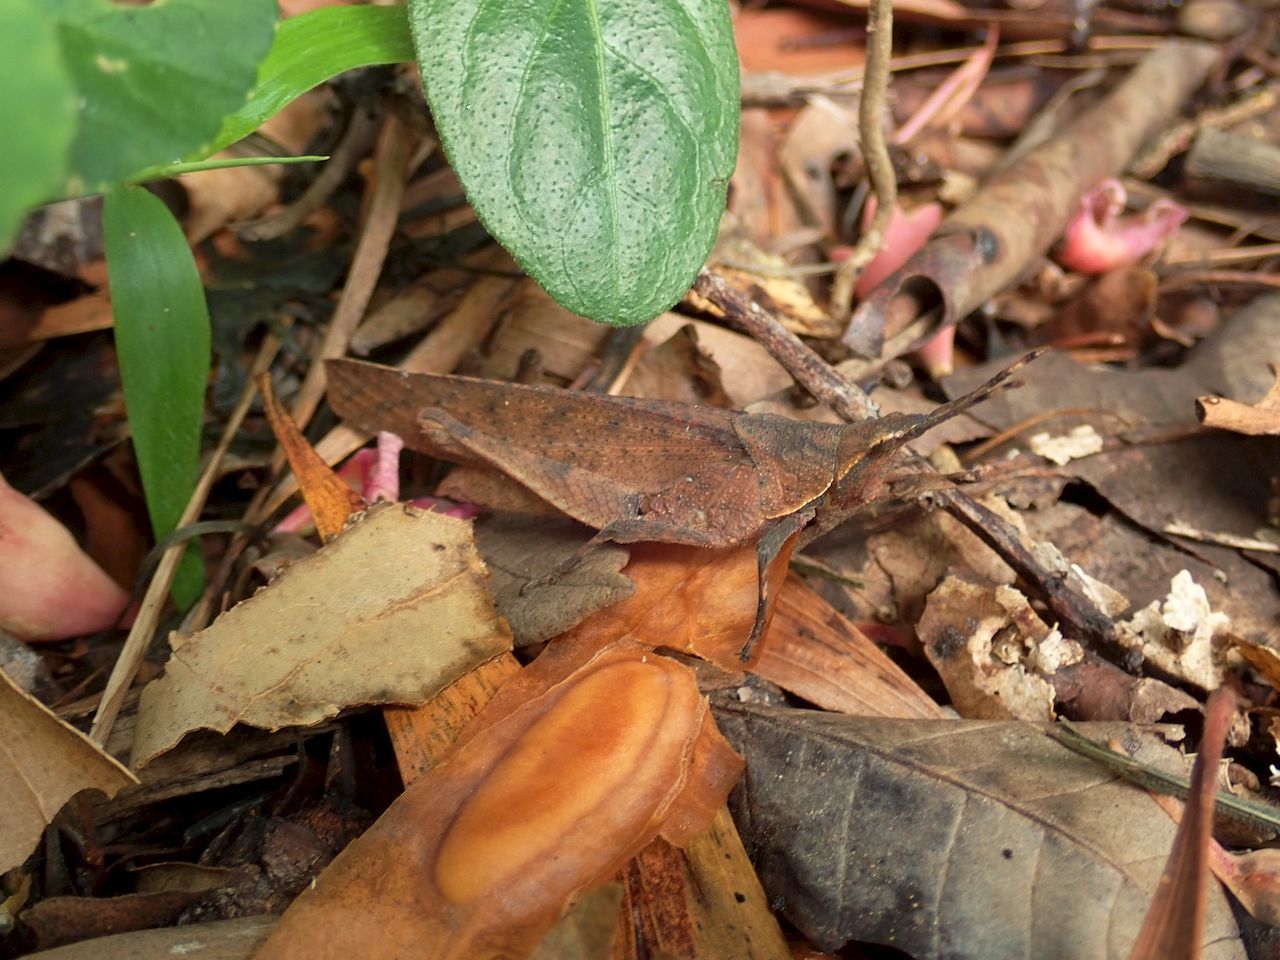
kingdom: Animalia
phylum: Arthropoda
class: Insecta
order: Orthoptera
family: Pyrgomorphidae
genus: Desmoptera
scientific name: Desmoptera truncatipennis
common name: Large forest pyrgomorph
